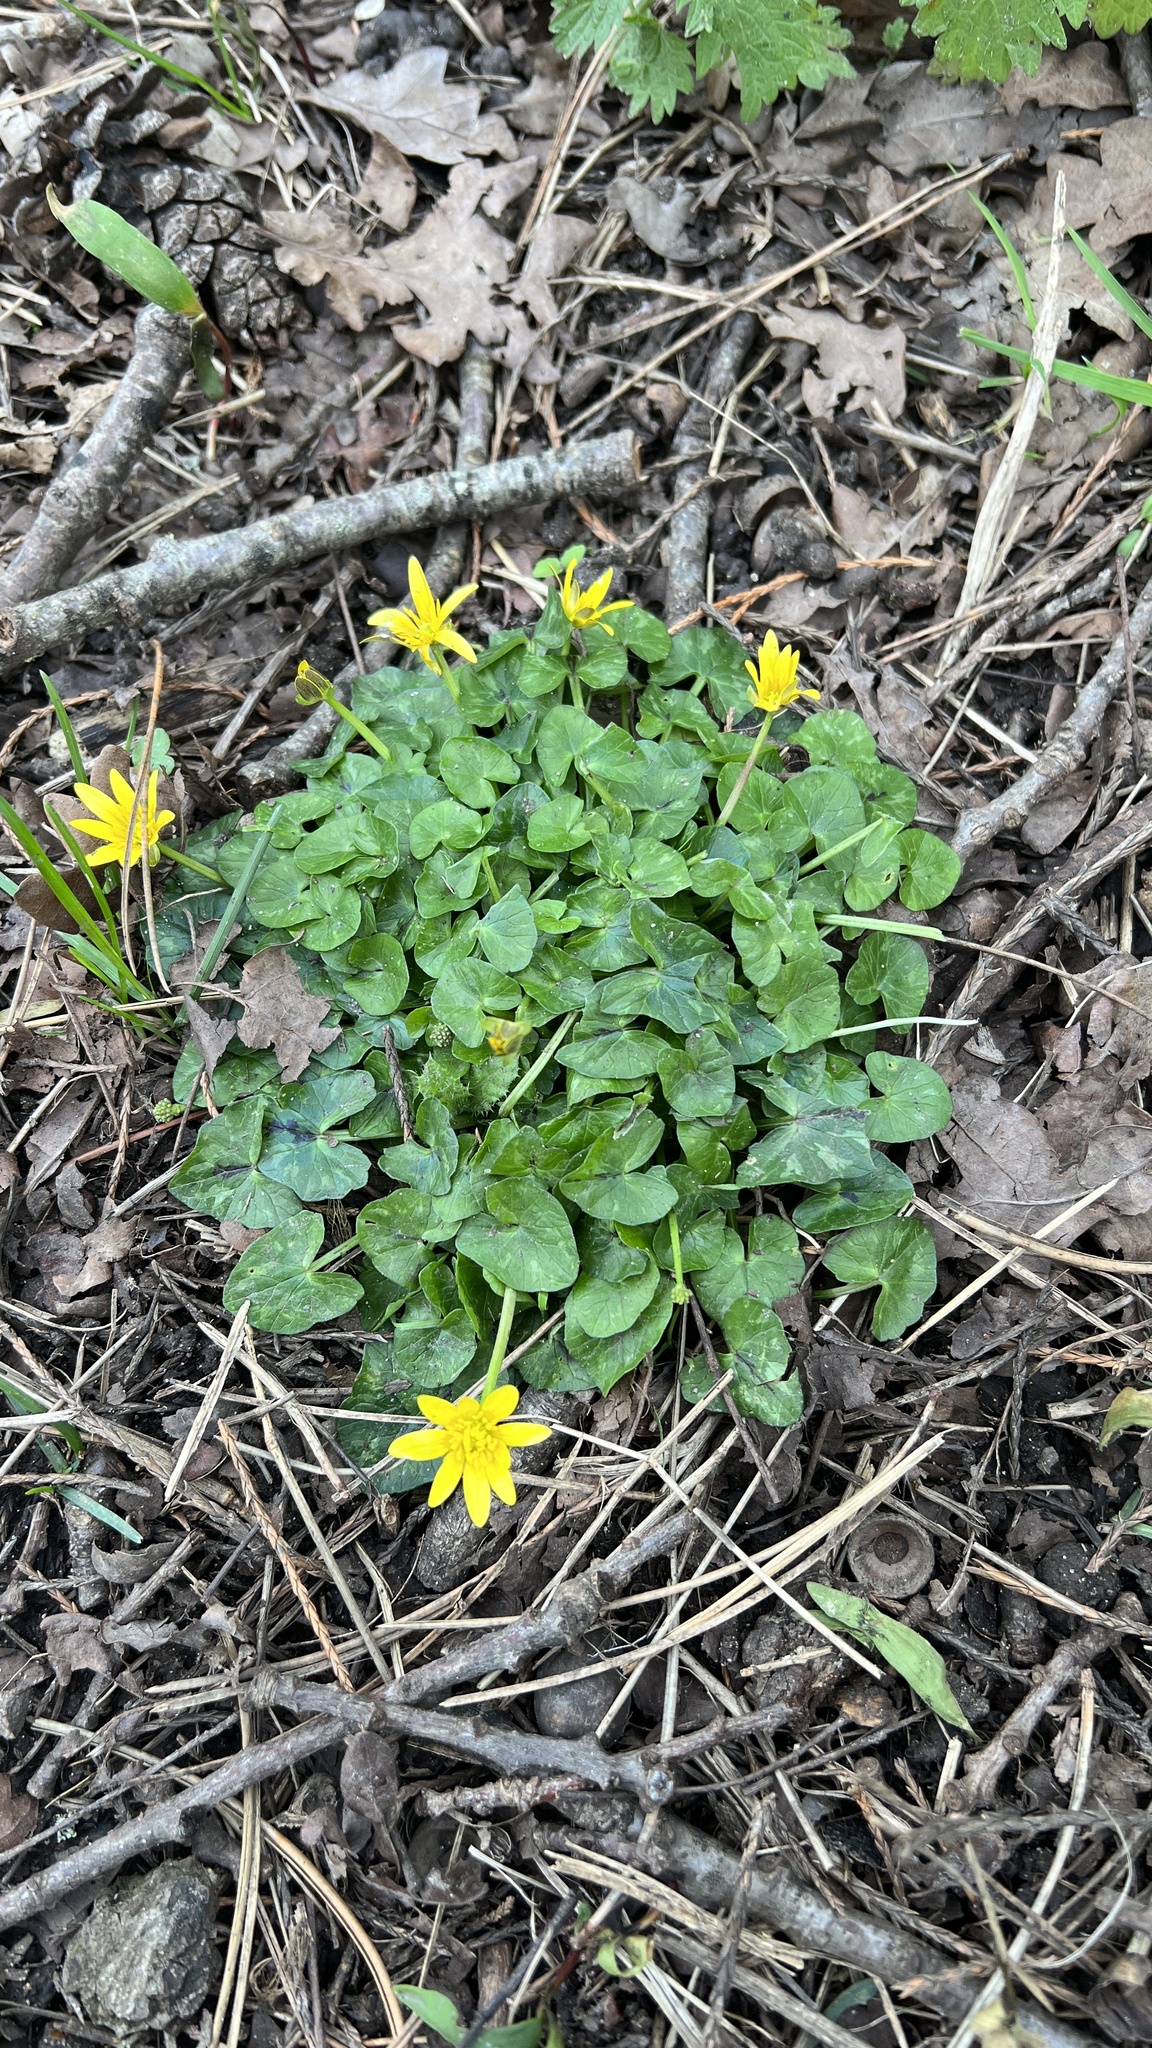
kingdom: Plantae
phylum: Tracheophyta
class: Magnoliopsida
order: Ranunculales
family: Ranunculaceae
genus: Ficaria
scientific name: Ficaria verna
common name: Lesser celandine
